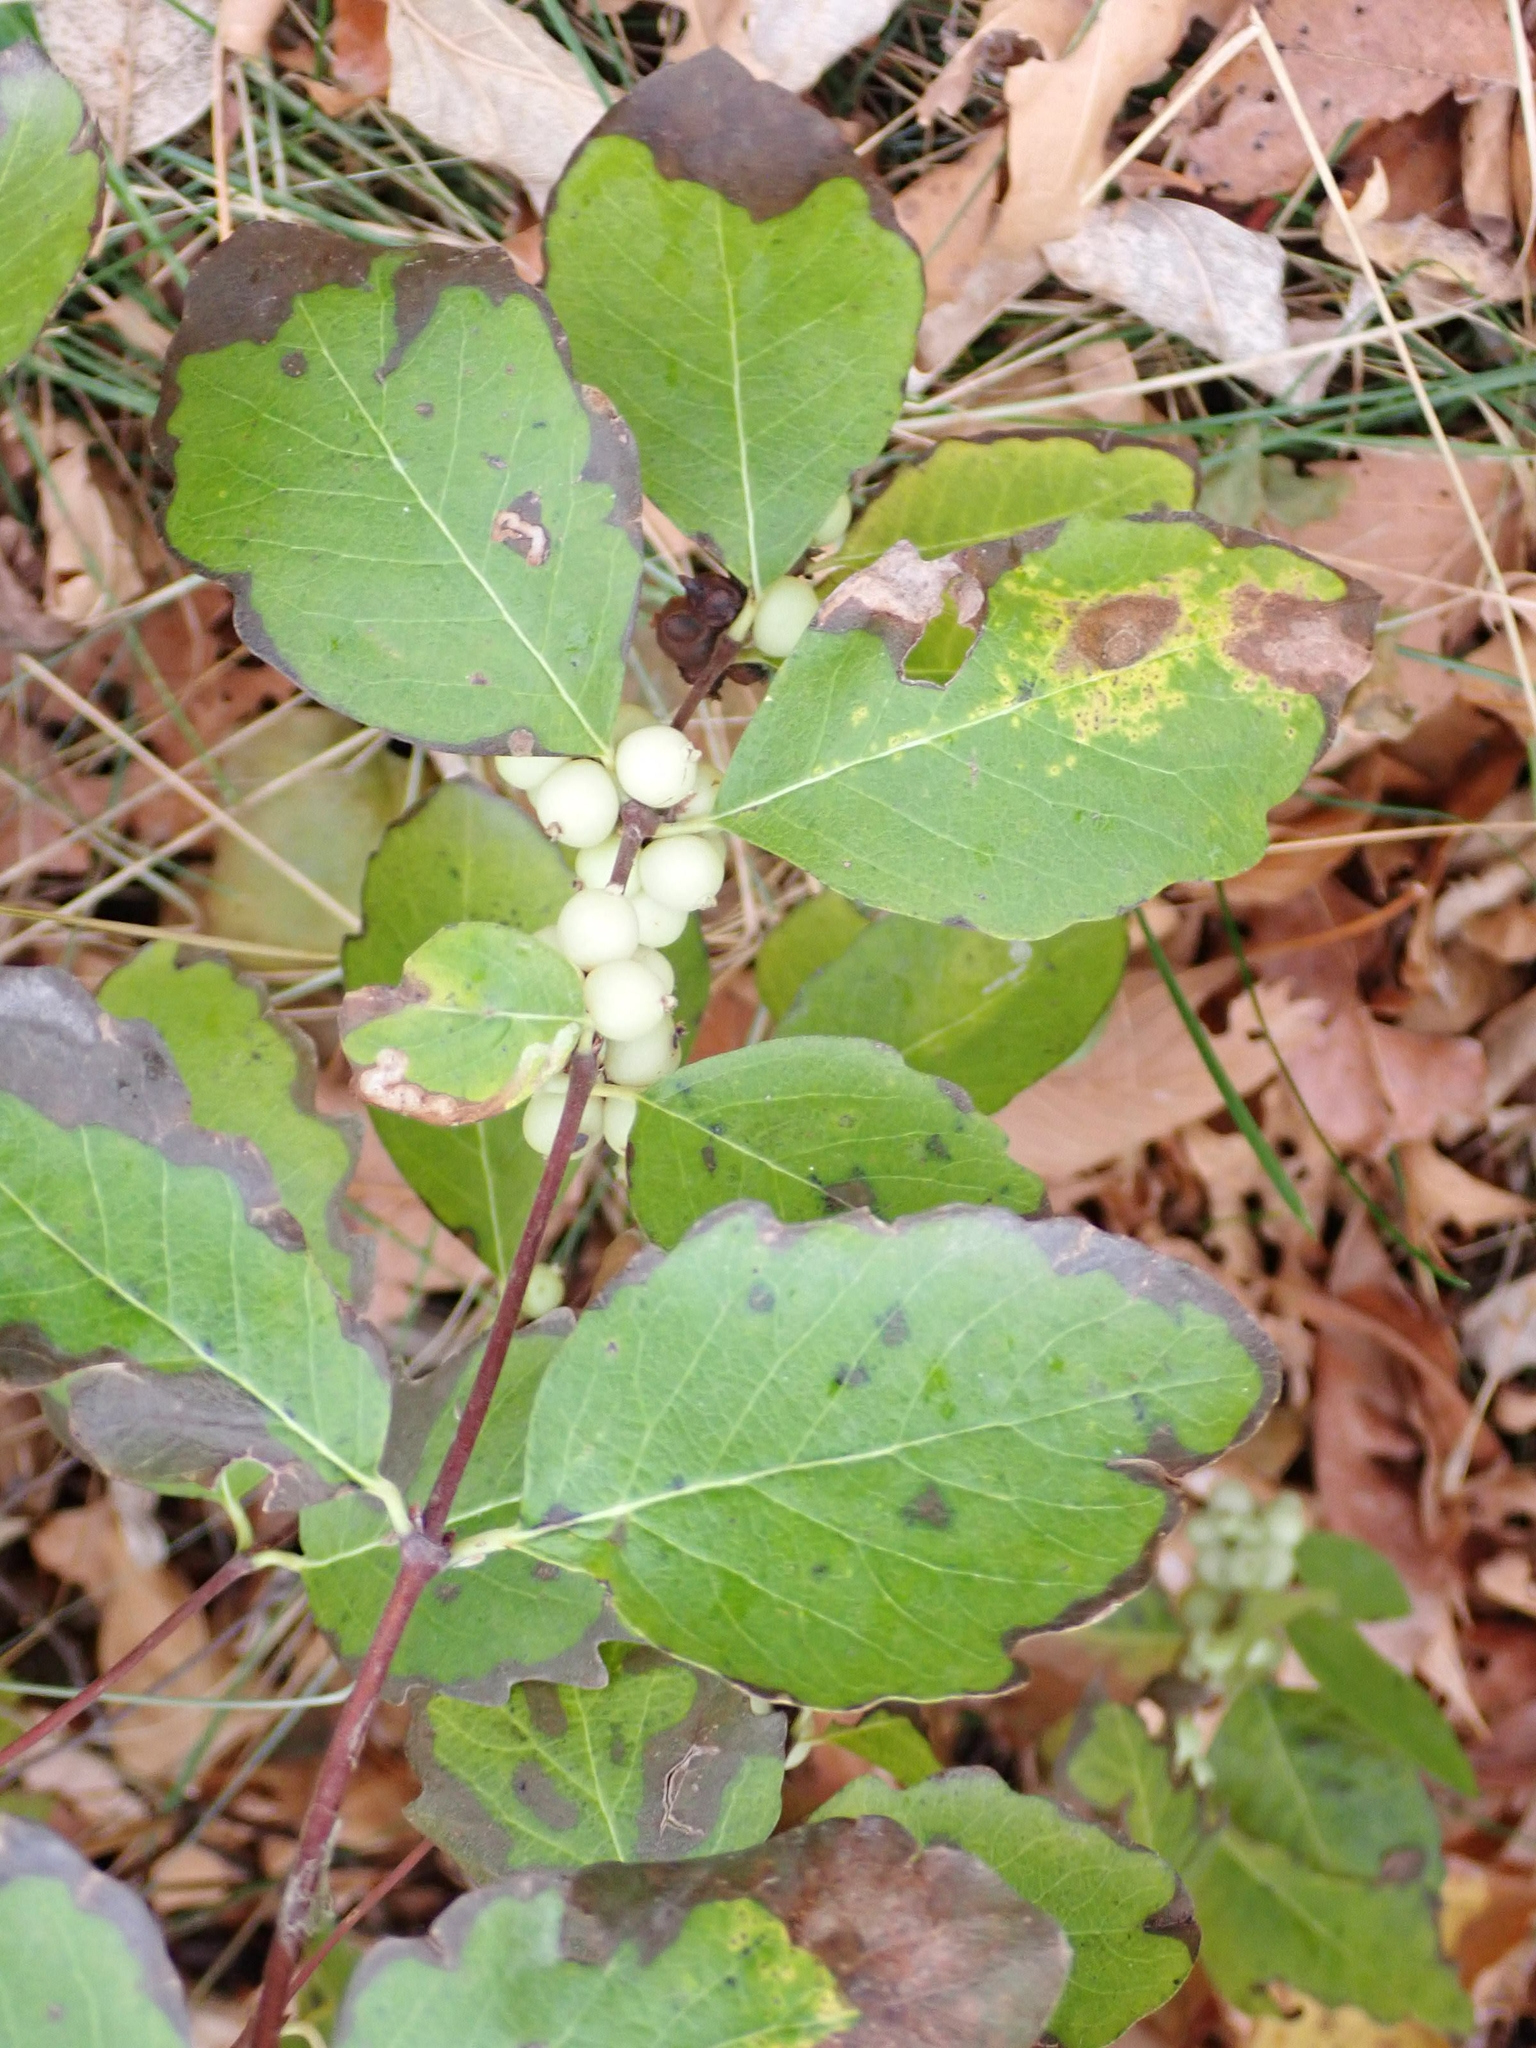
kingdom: Plantae
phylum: Tracheophyta
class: Magnoliopsida
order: Dipsacales
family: Caprifoliaceae
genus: Symphoricarpos
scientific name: Symphoricarpos occidentalis
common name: Wolfberry
